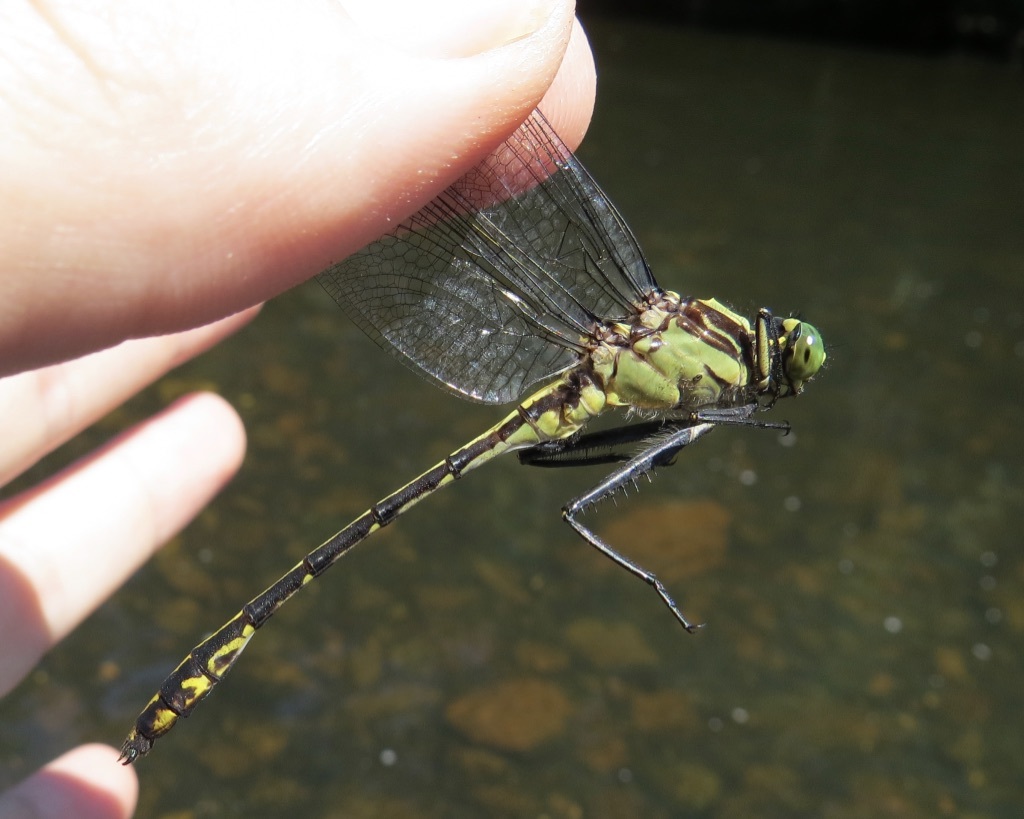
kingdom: Animalia
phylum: Arthropoda
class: Insecta
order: Odonata
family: Gomphidae
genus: Dromogomphus
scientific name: Dromogomphus spinosus
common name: Black-shouldered spinyleg
